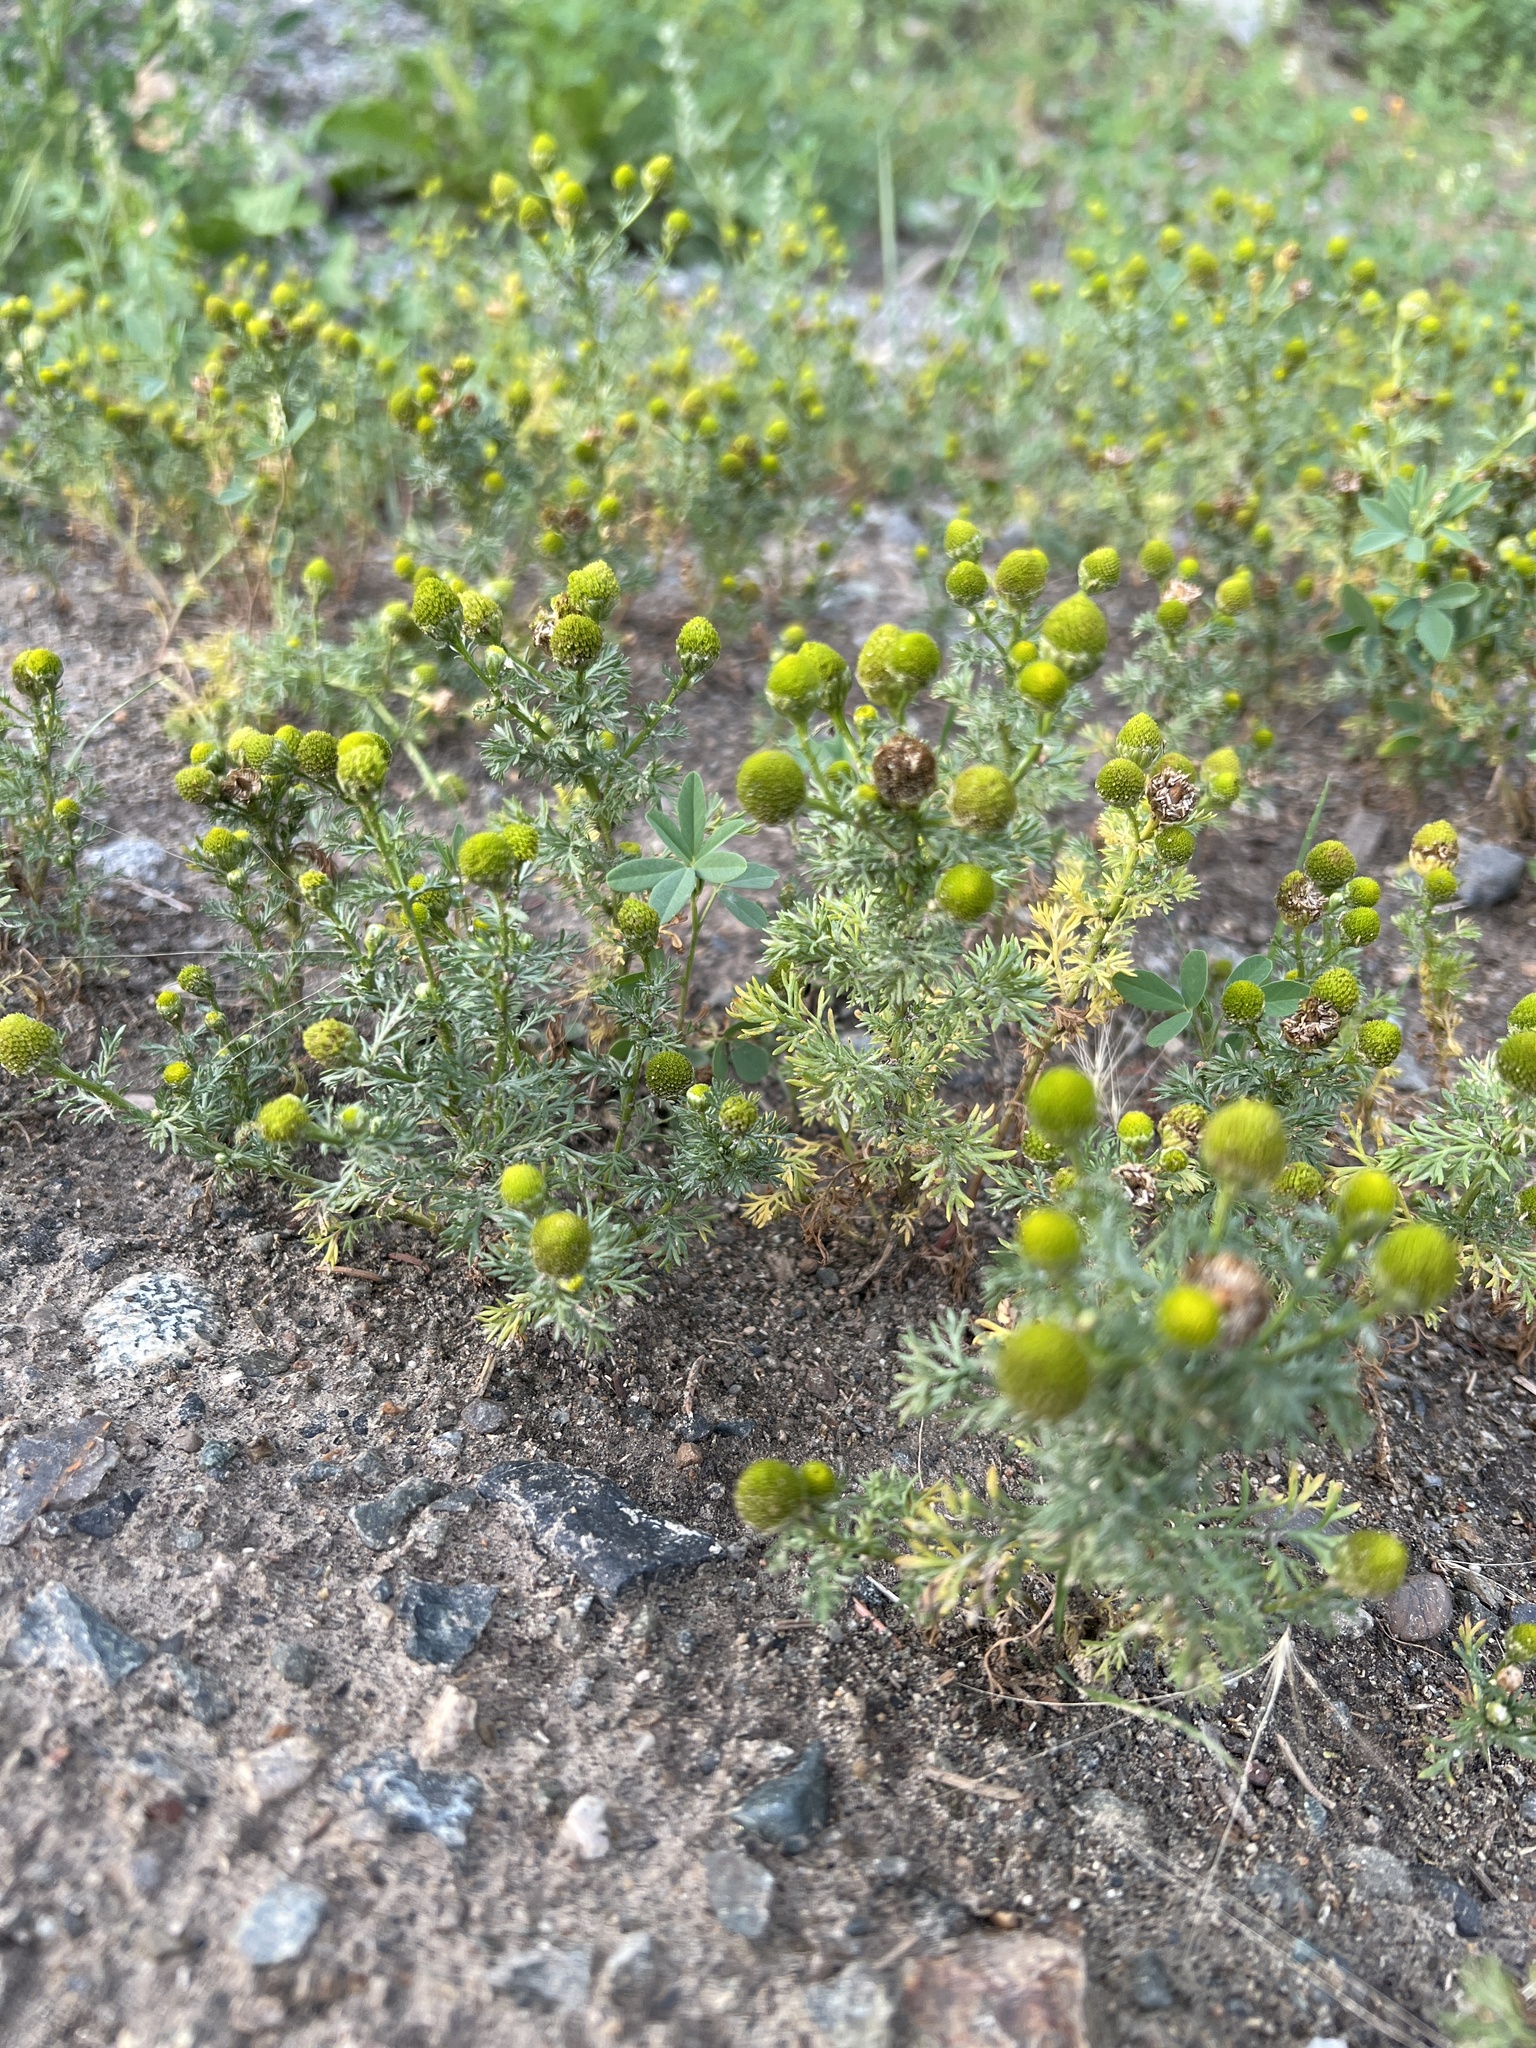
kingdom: Plantae
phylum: Tracheophyta
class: Magnoliopsida
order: Asterales
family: Asteraceae
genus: Matricaria
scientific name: Matricaria discoidea
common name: Disc mayweed
